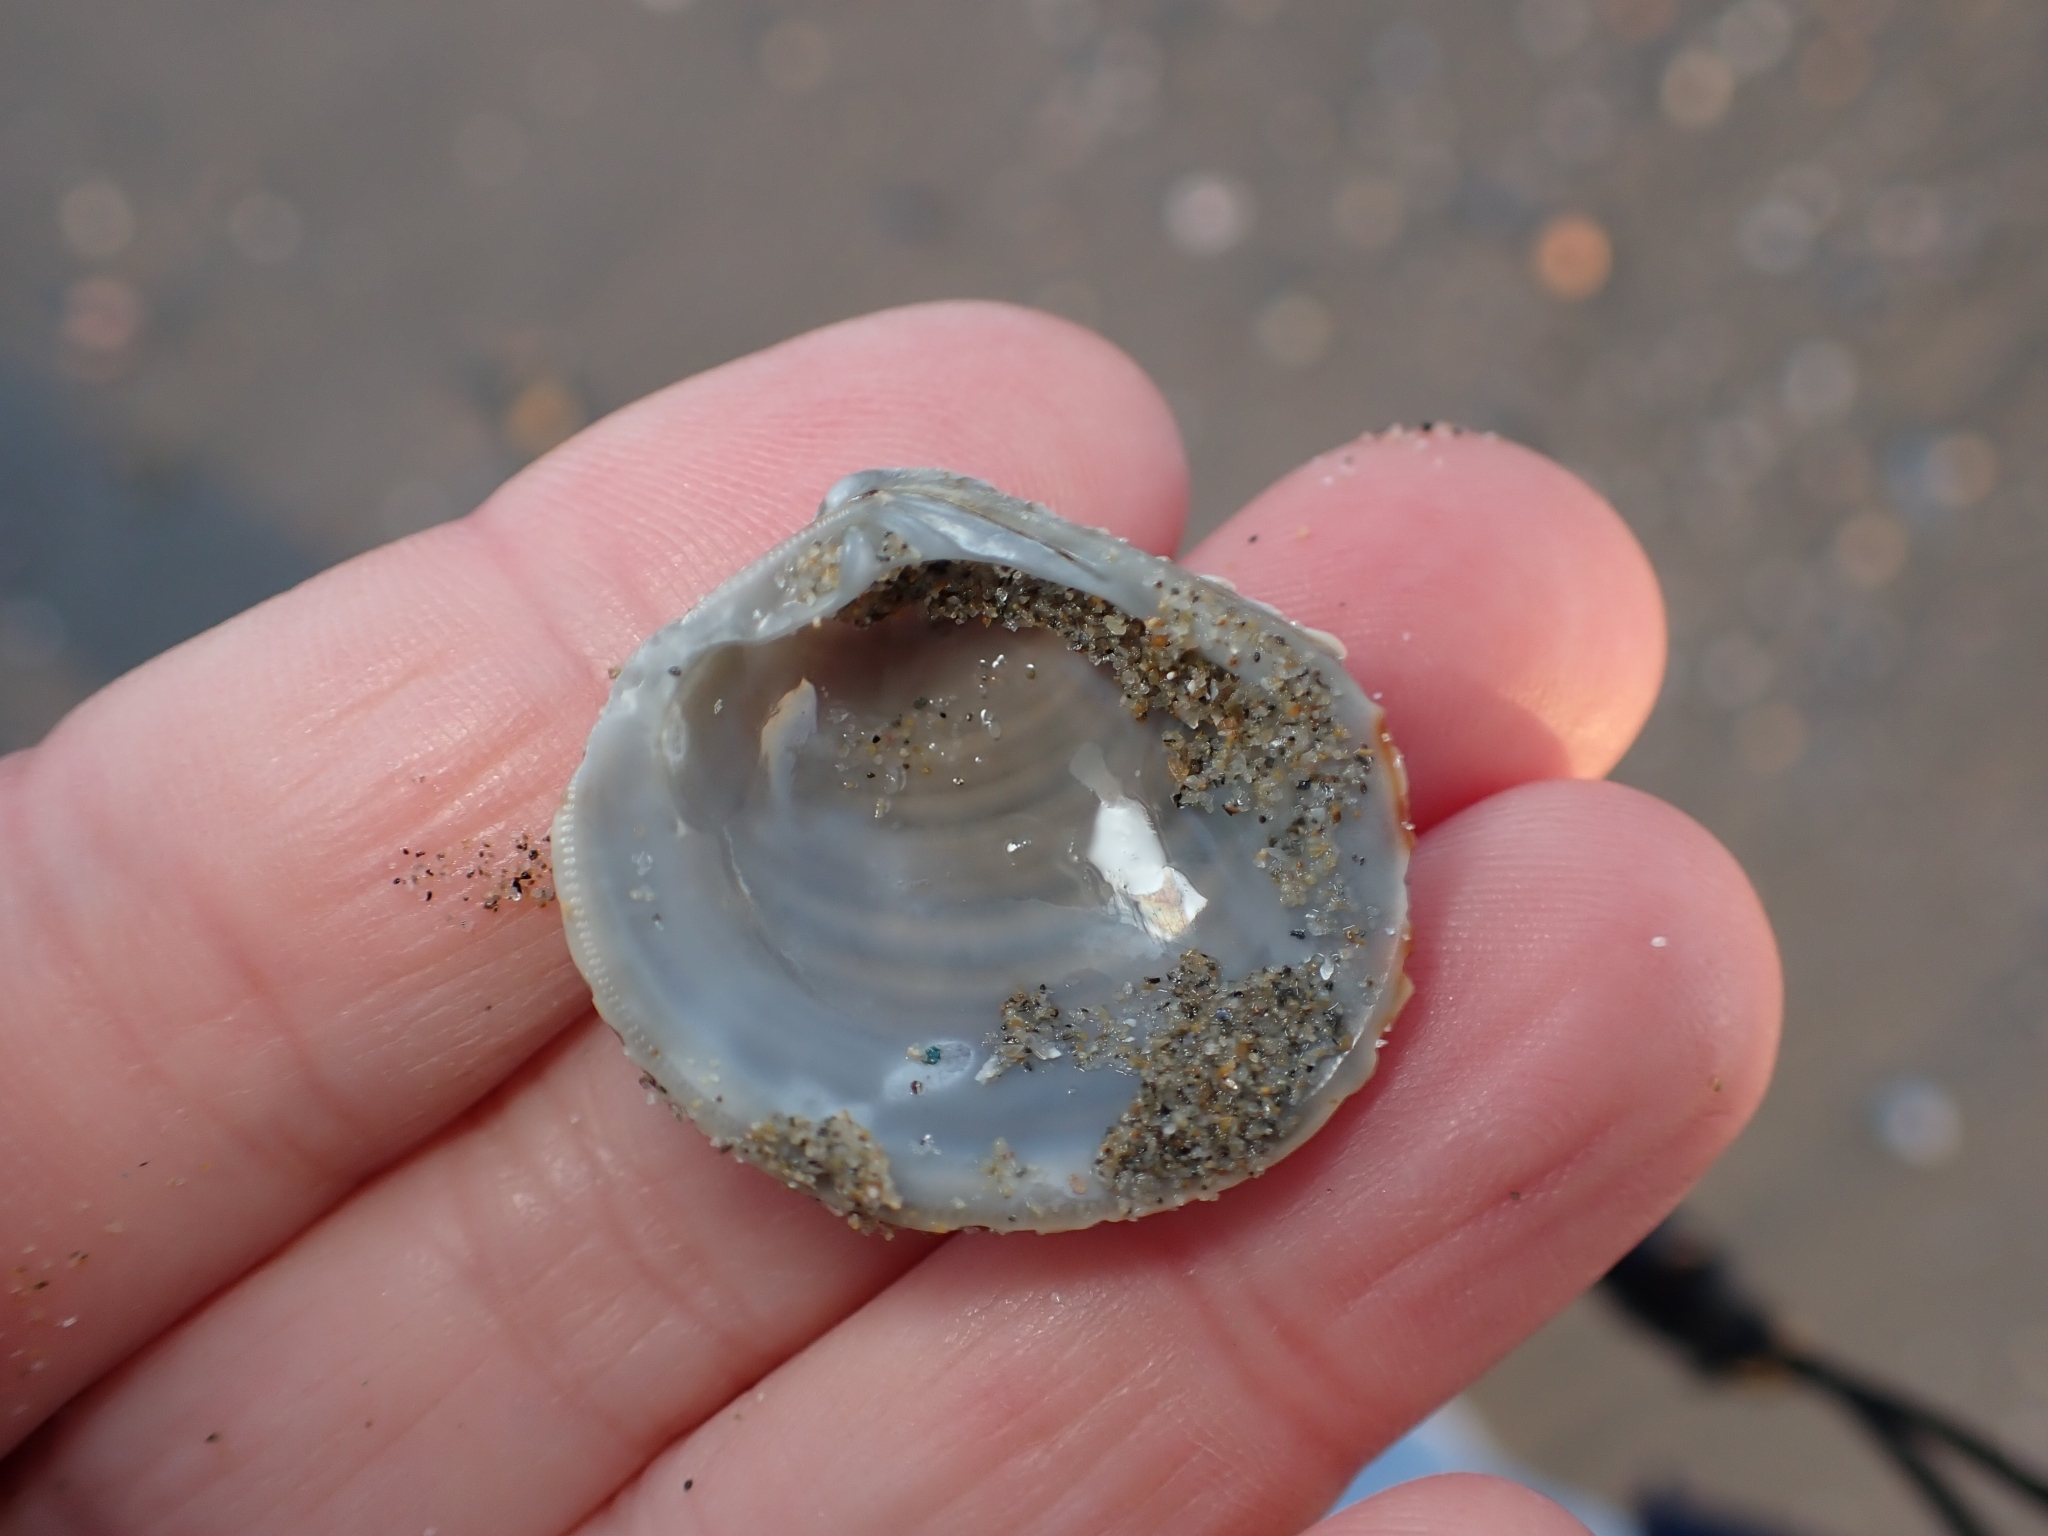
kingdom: Animalia
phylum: Mollusca
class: Bivalvia
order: Venerida
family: Veneridae
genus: Venus
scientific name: Venus verrucosa
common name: Warty venus
